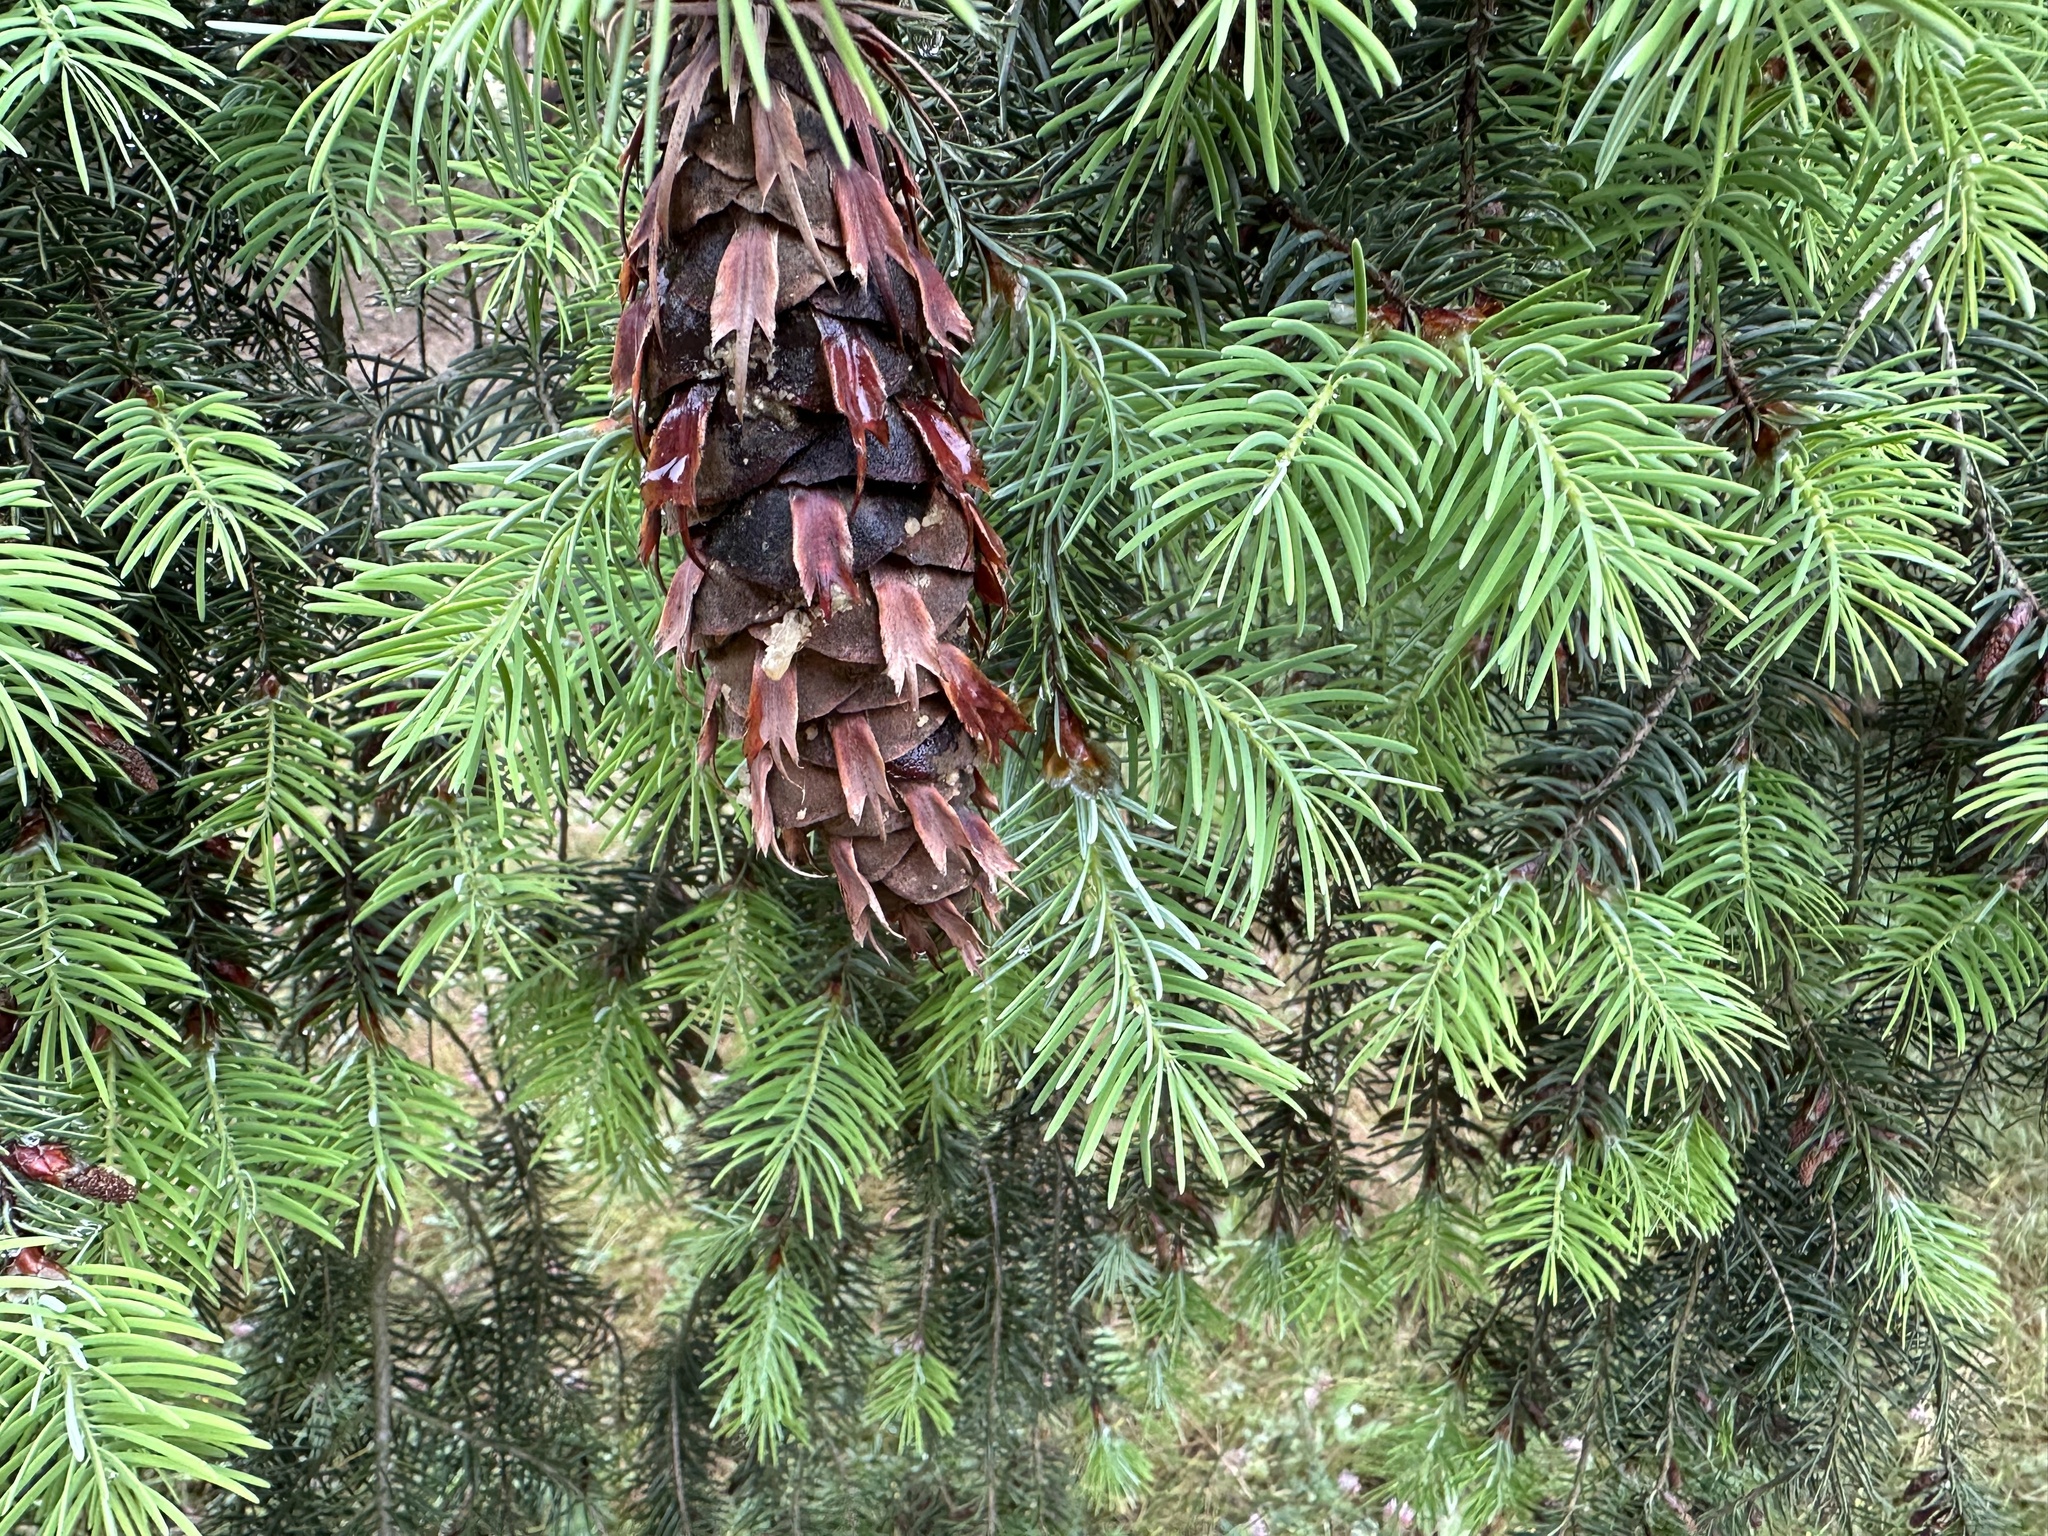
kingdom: Plantae
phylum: Tracheophyta
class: Pinopsida
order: Pinales
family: Pinaceae
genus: Pseudotsuga
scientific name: Pseudotsuga macrocarpa
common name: Big-cone douglas-fir
